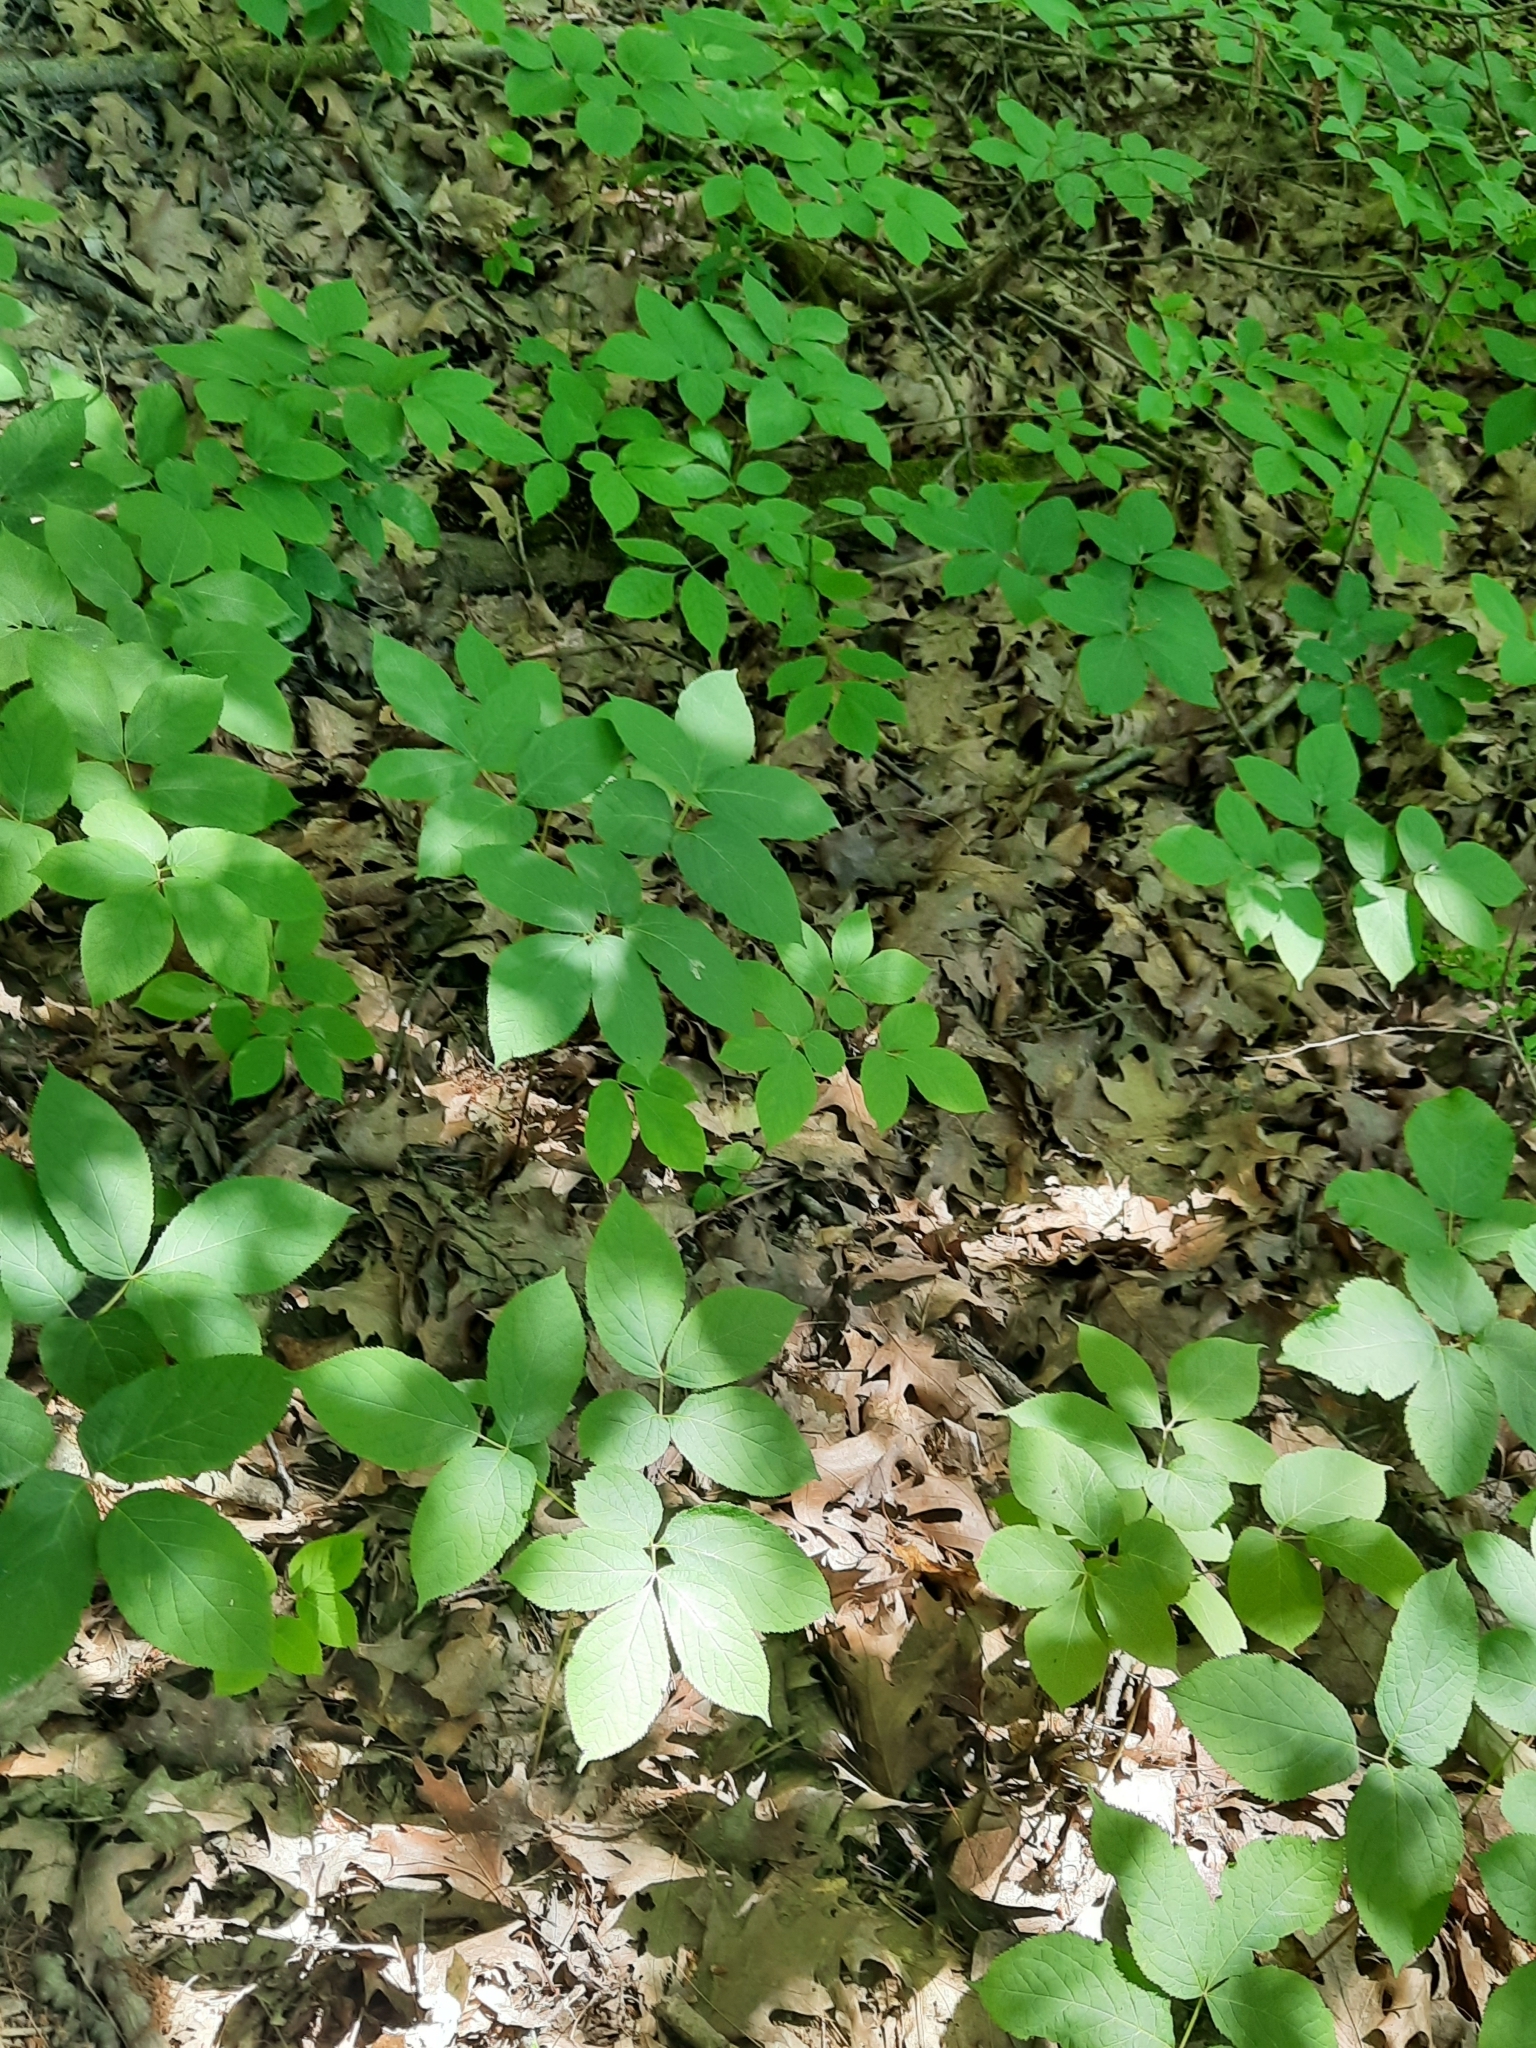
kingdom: Plantae
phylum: Tracheophyta
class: Magnoliopsida
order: Apiales
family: Araliaceae
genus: Aralia
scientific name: Aralia nudicaulis
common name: Wild sarsaparilla
